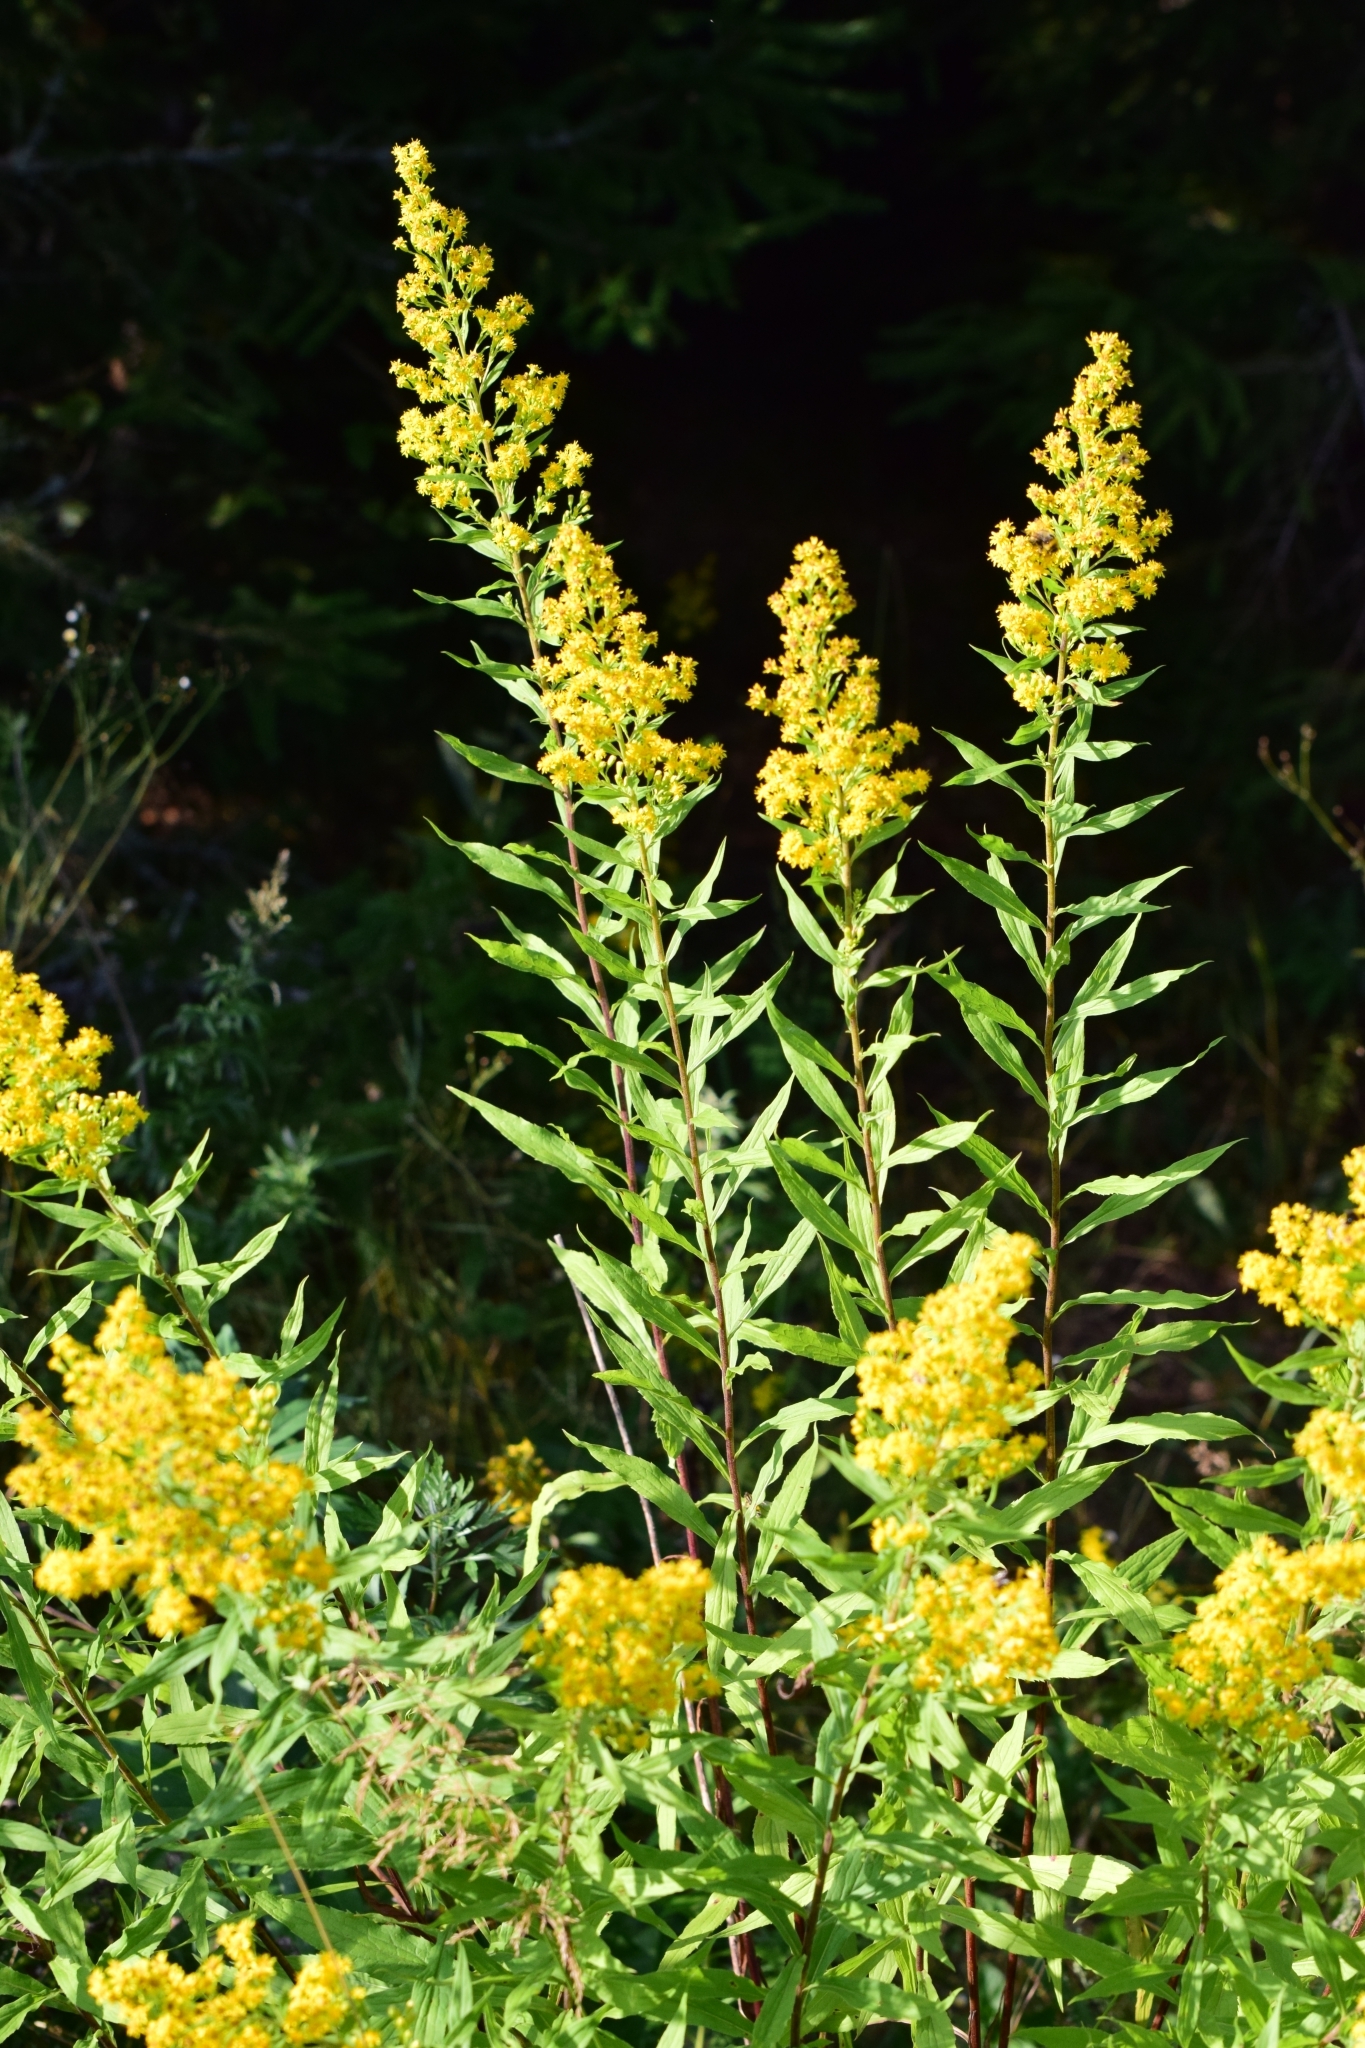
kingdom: Plantae
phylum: Tracheophyta
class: Magnoliopsida
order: Asterales
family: Asteraceae
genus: Solidago
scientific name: Solidago niederederi
